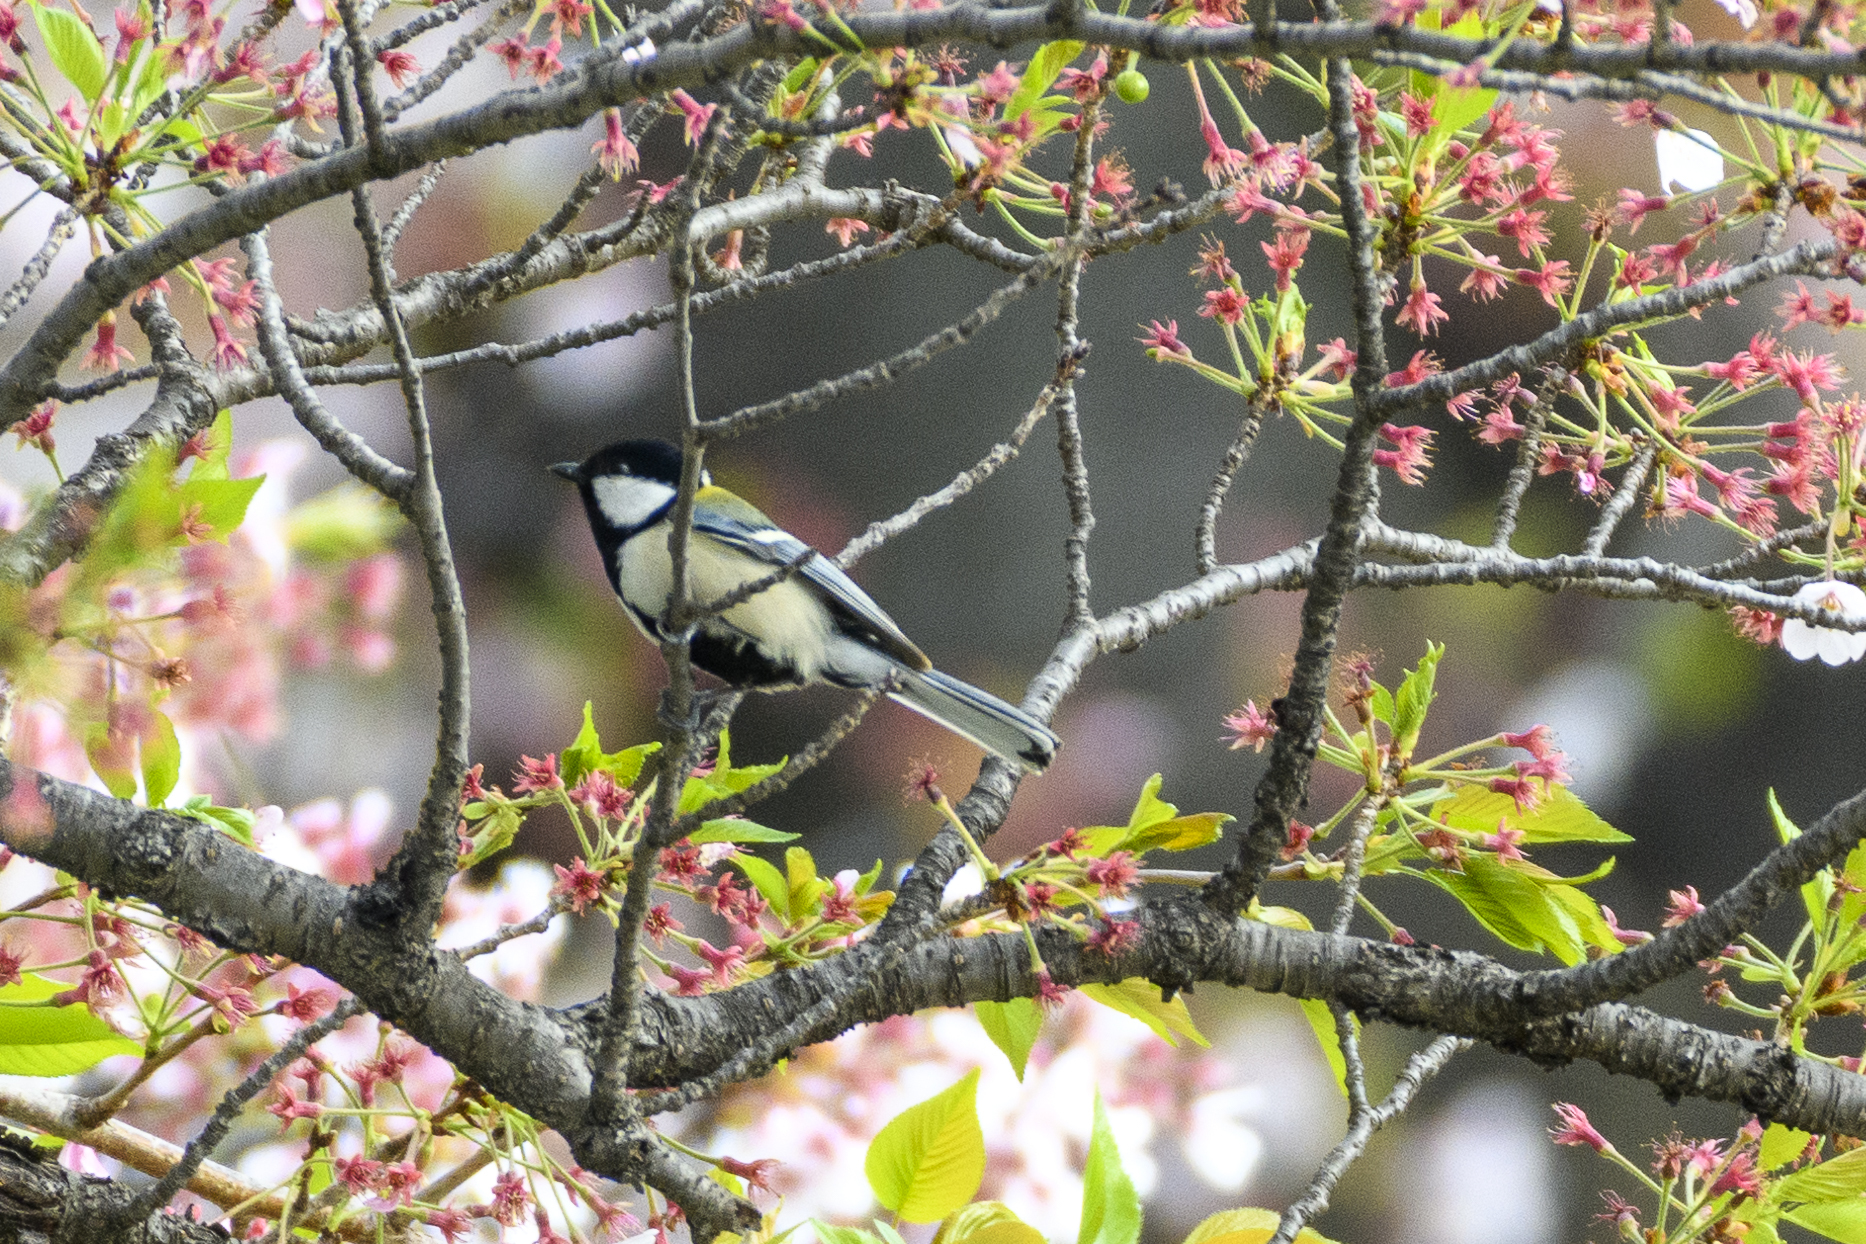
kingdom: Animalia
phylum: Chordata
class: Aves
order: Passeriformes
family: Paridae
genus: Parus
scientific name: Parus minor
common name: Japanese tit
